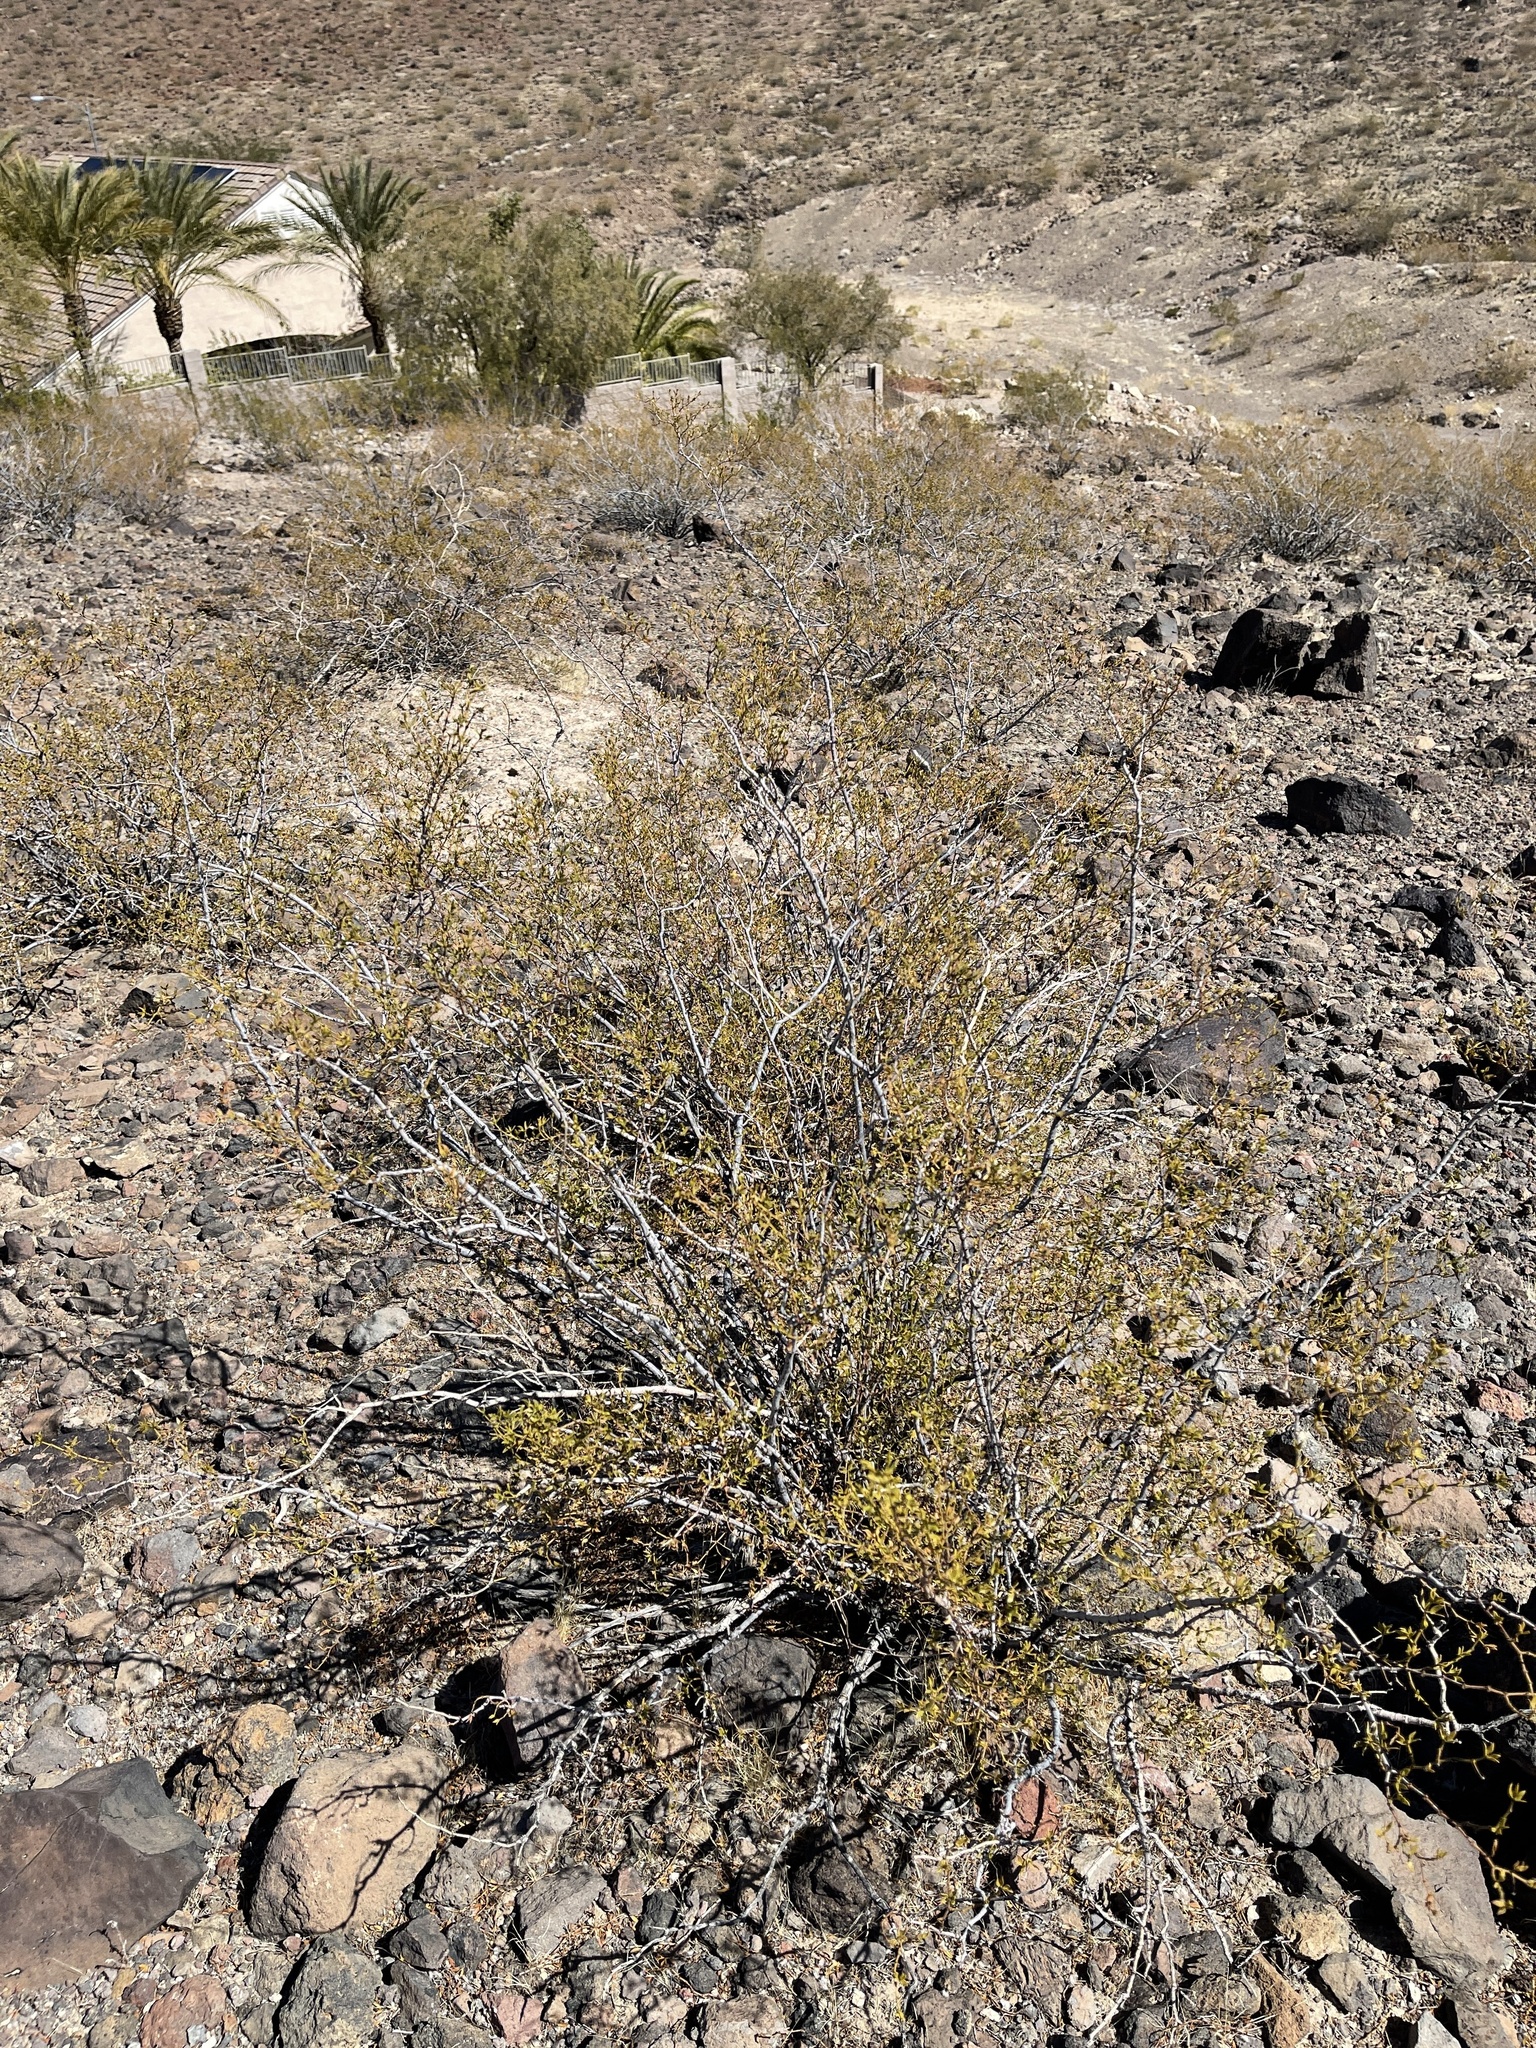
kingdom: Plantae
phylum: Tracheophyta
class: Magnoliopsida
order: Zygophyllales
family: Zygophyllaceae
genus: Larrea
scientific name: Larrea tridentata
